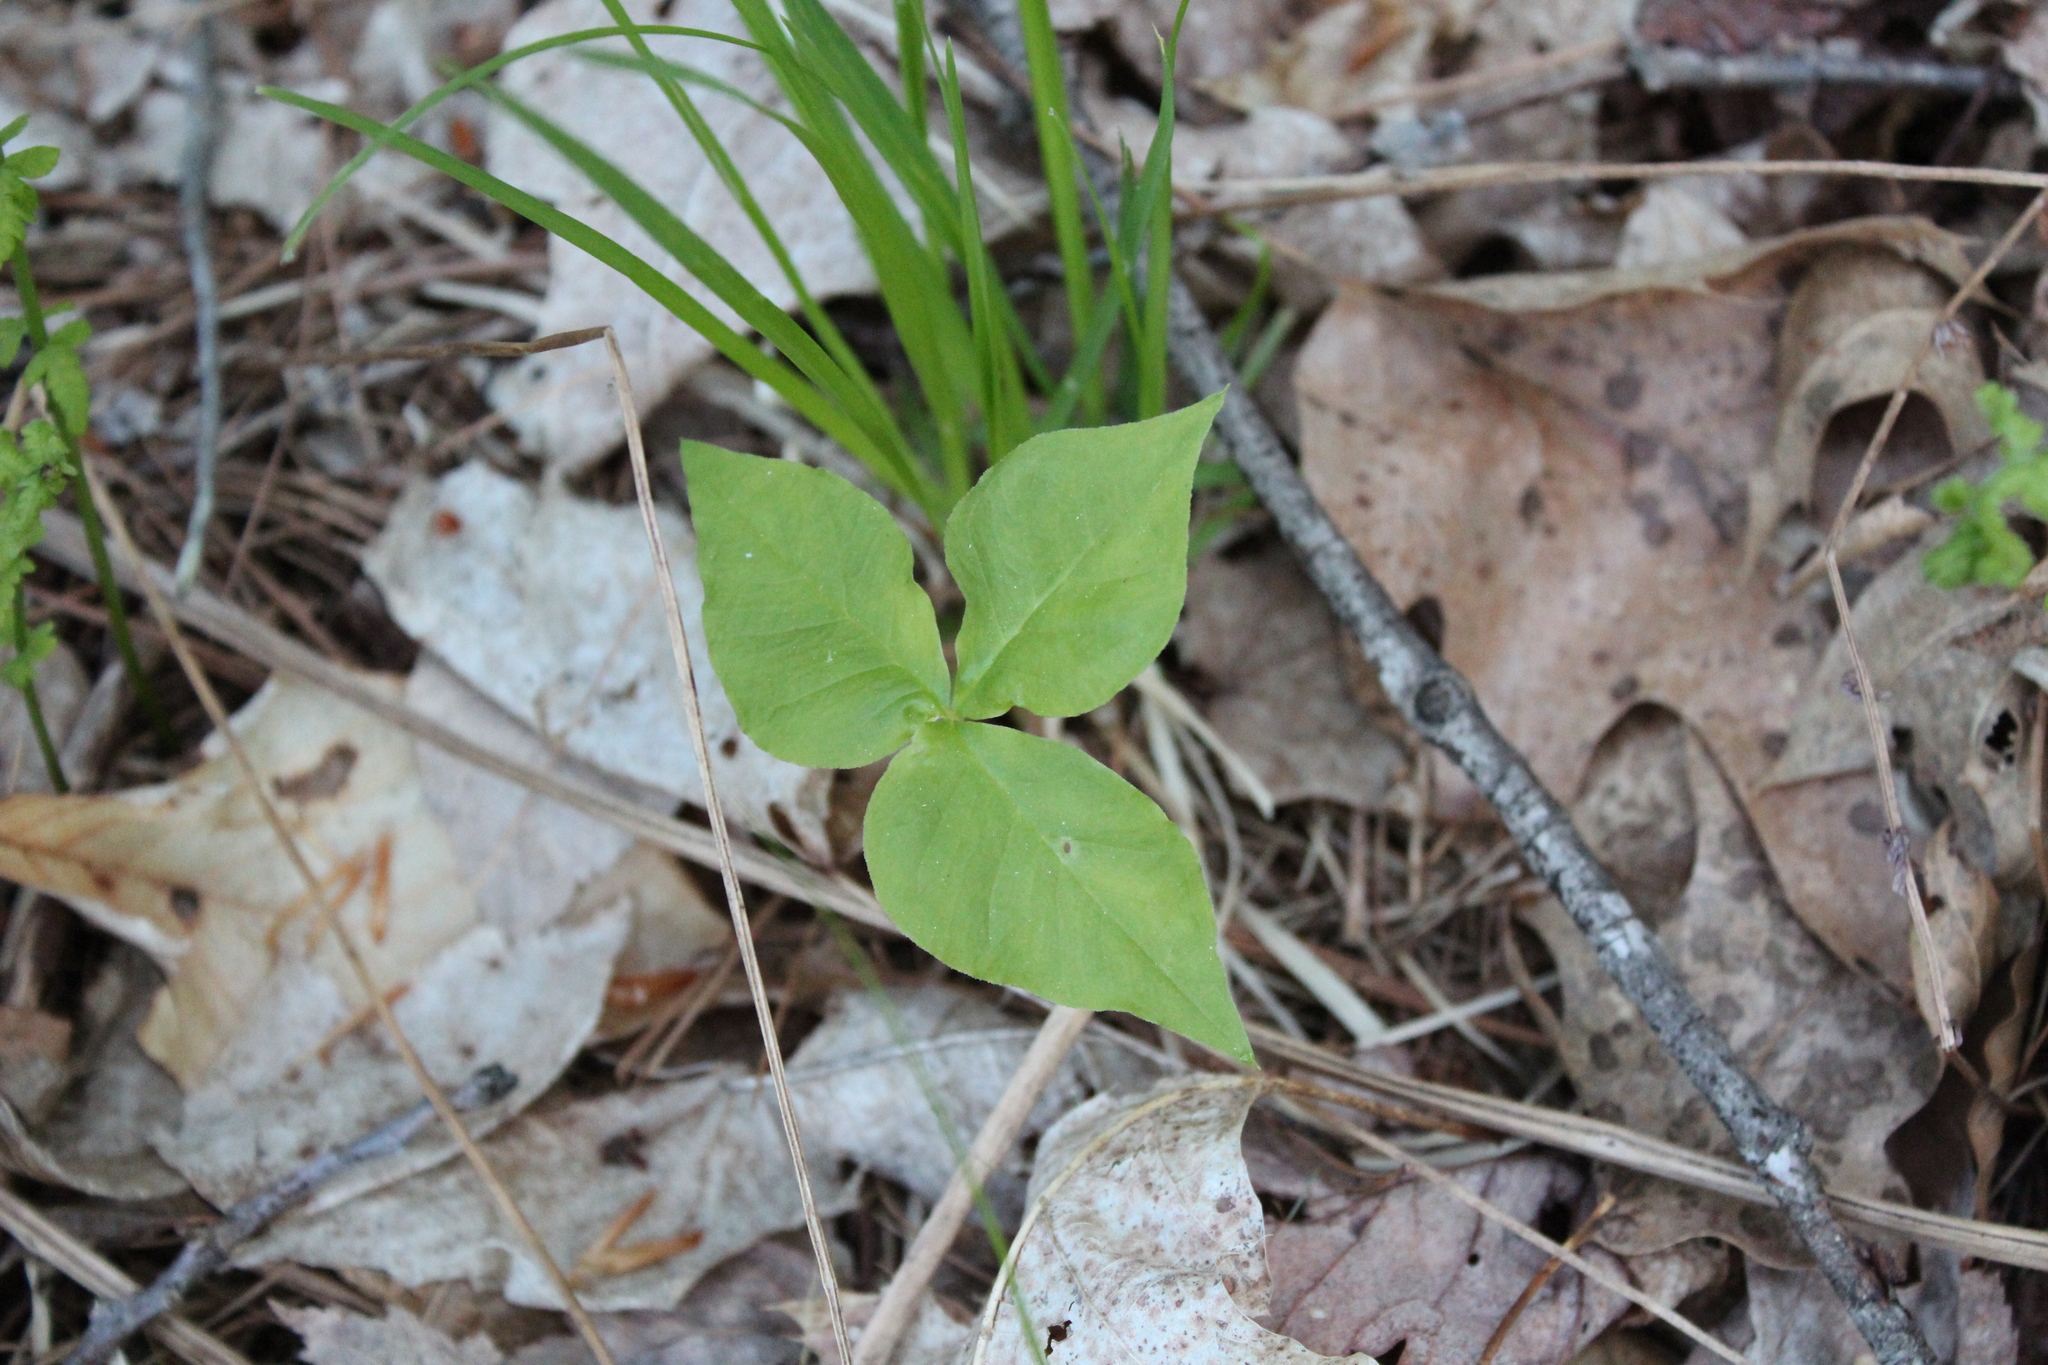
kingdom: Plantae
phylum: Tracheophyta
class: Liliopsida
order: Alismatales
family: Araceae
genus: Arisaema
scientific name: Arisaema triphyllum
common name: Jack-in-the-pulpit
